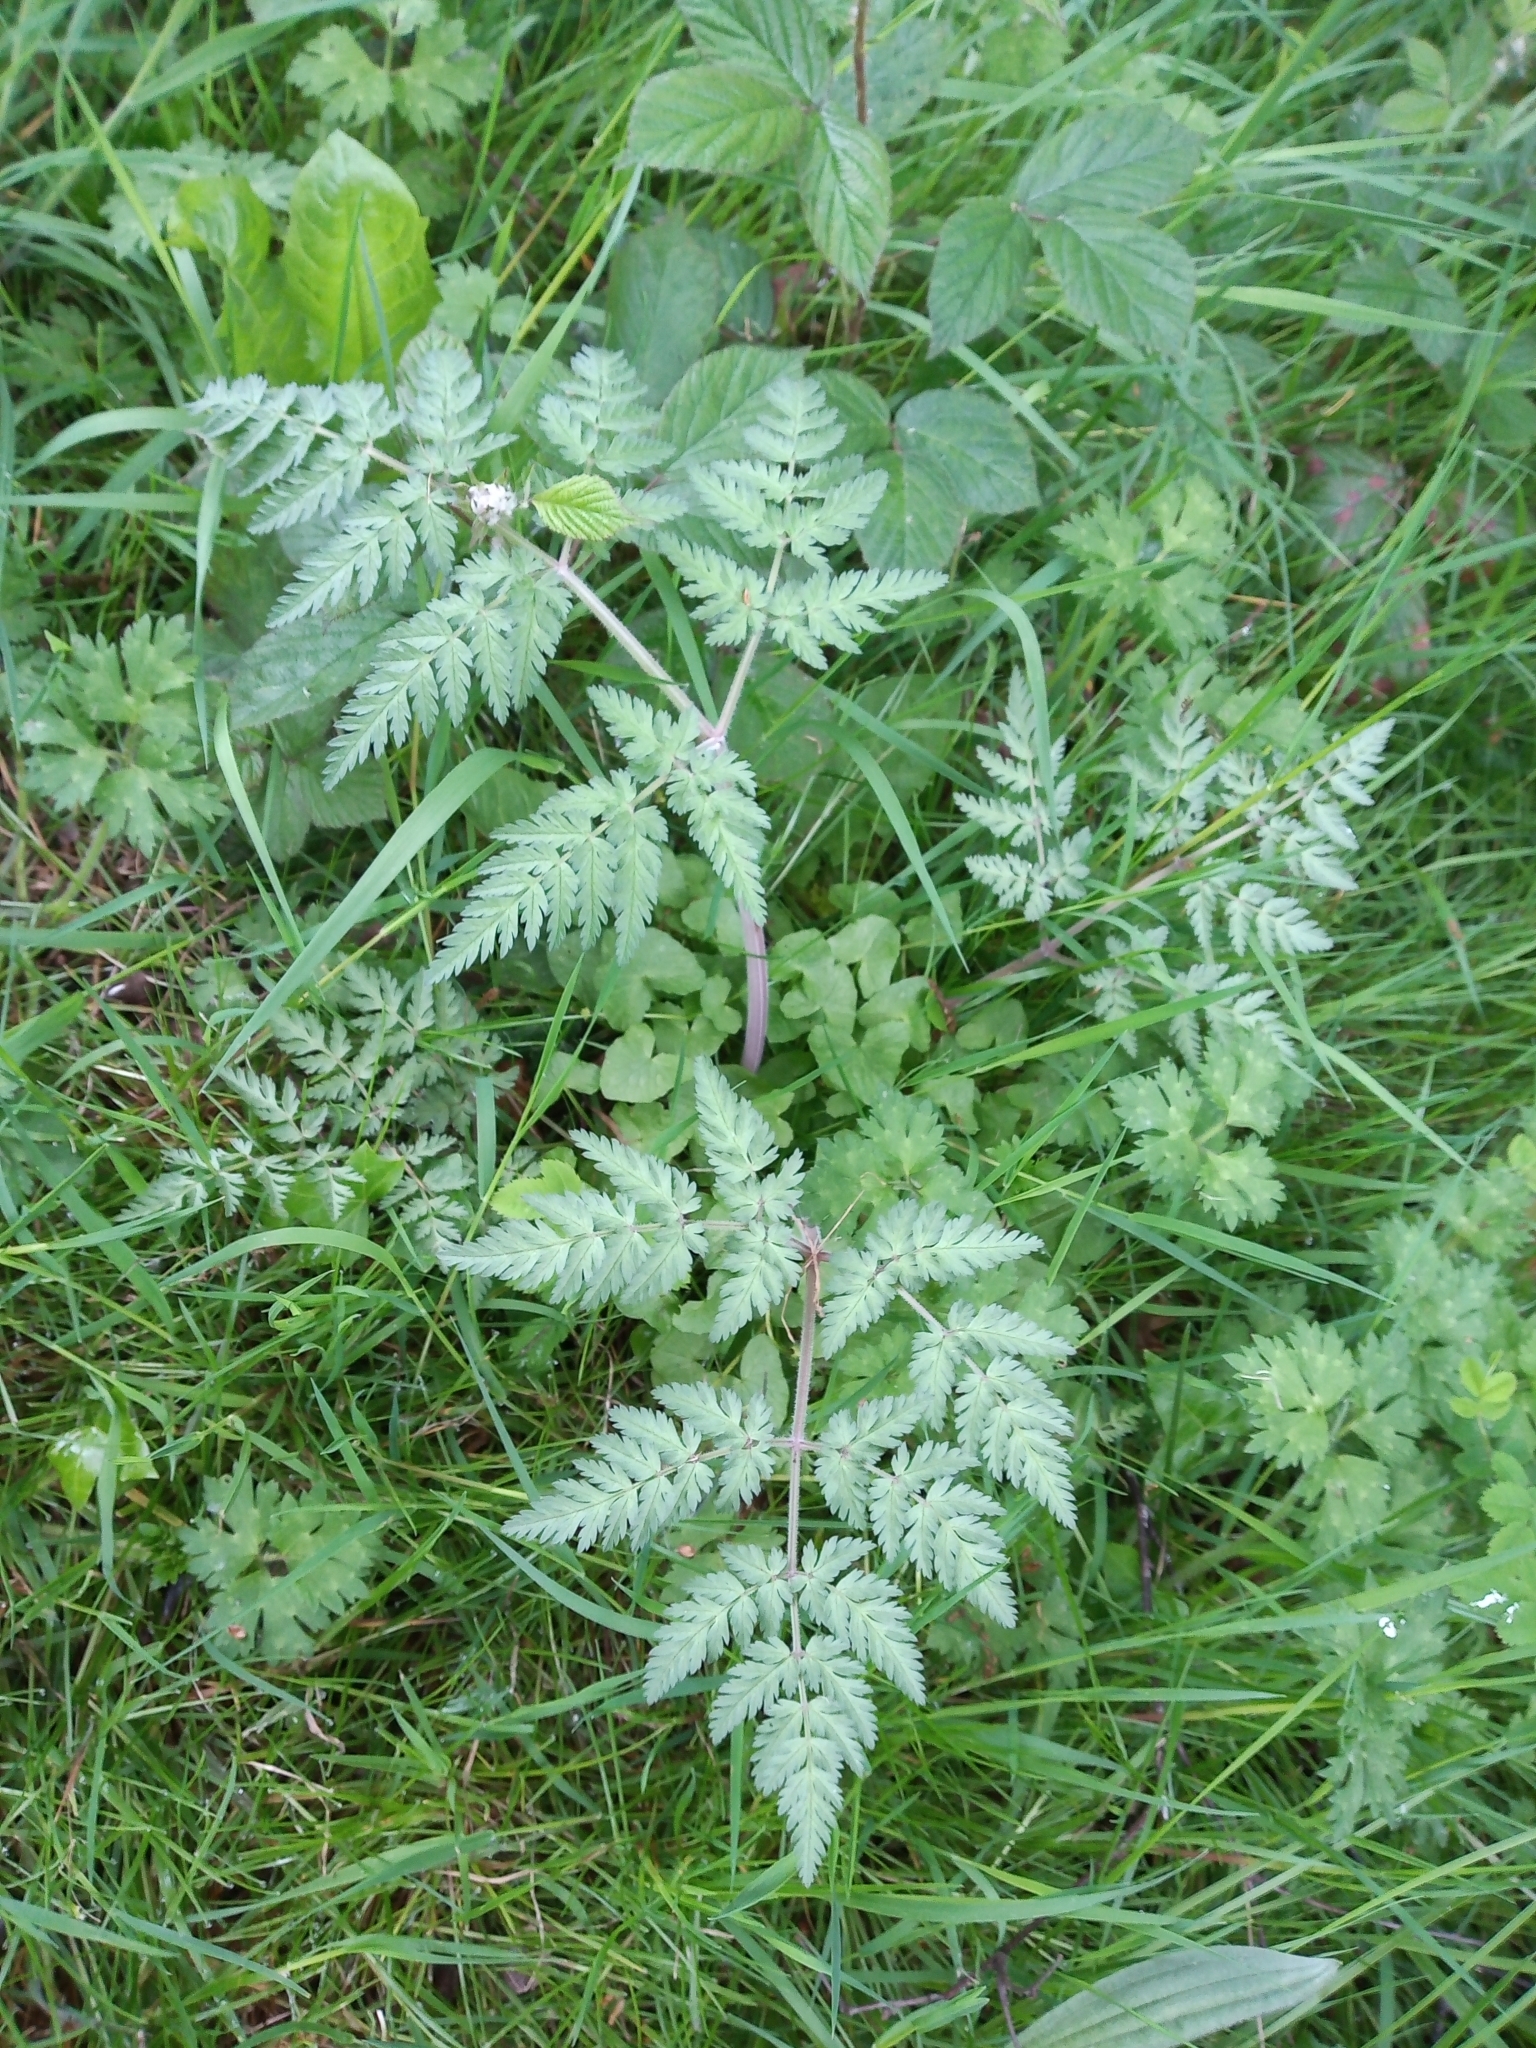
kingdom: Plantae
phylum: Tracheophyta
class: Magnoliopsida
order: Apiales
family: Apiaceae
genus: Anthriscus
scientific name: Anthriscus sylvestris
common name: Cow parsley
